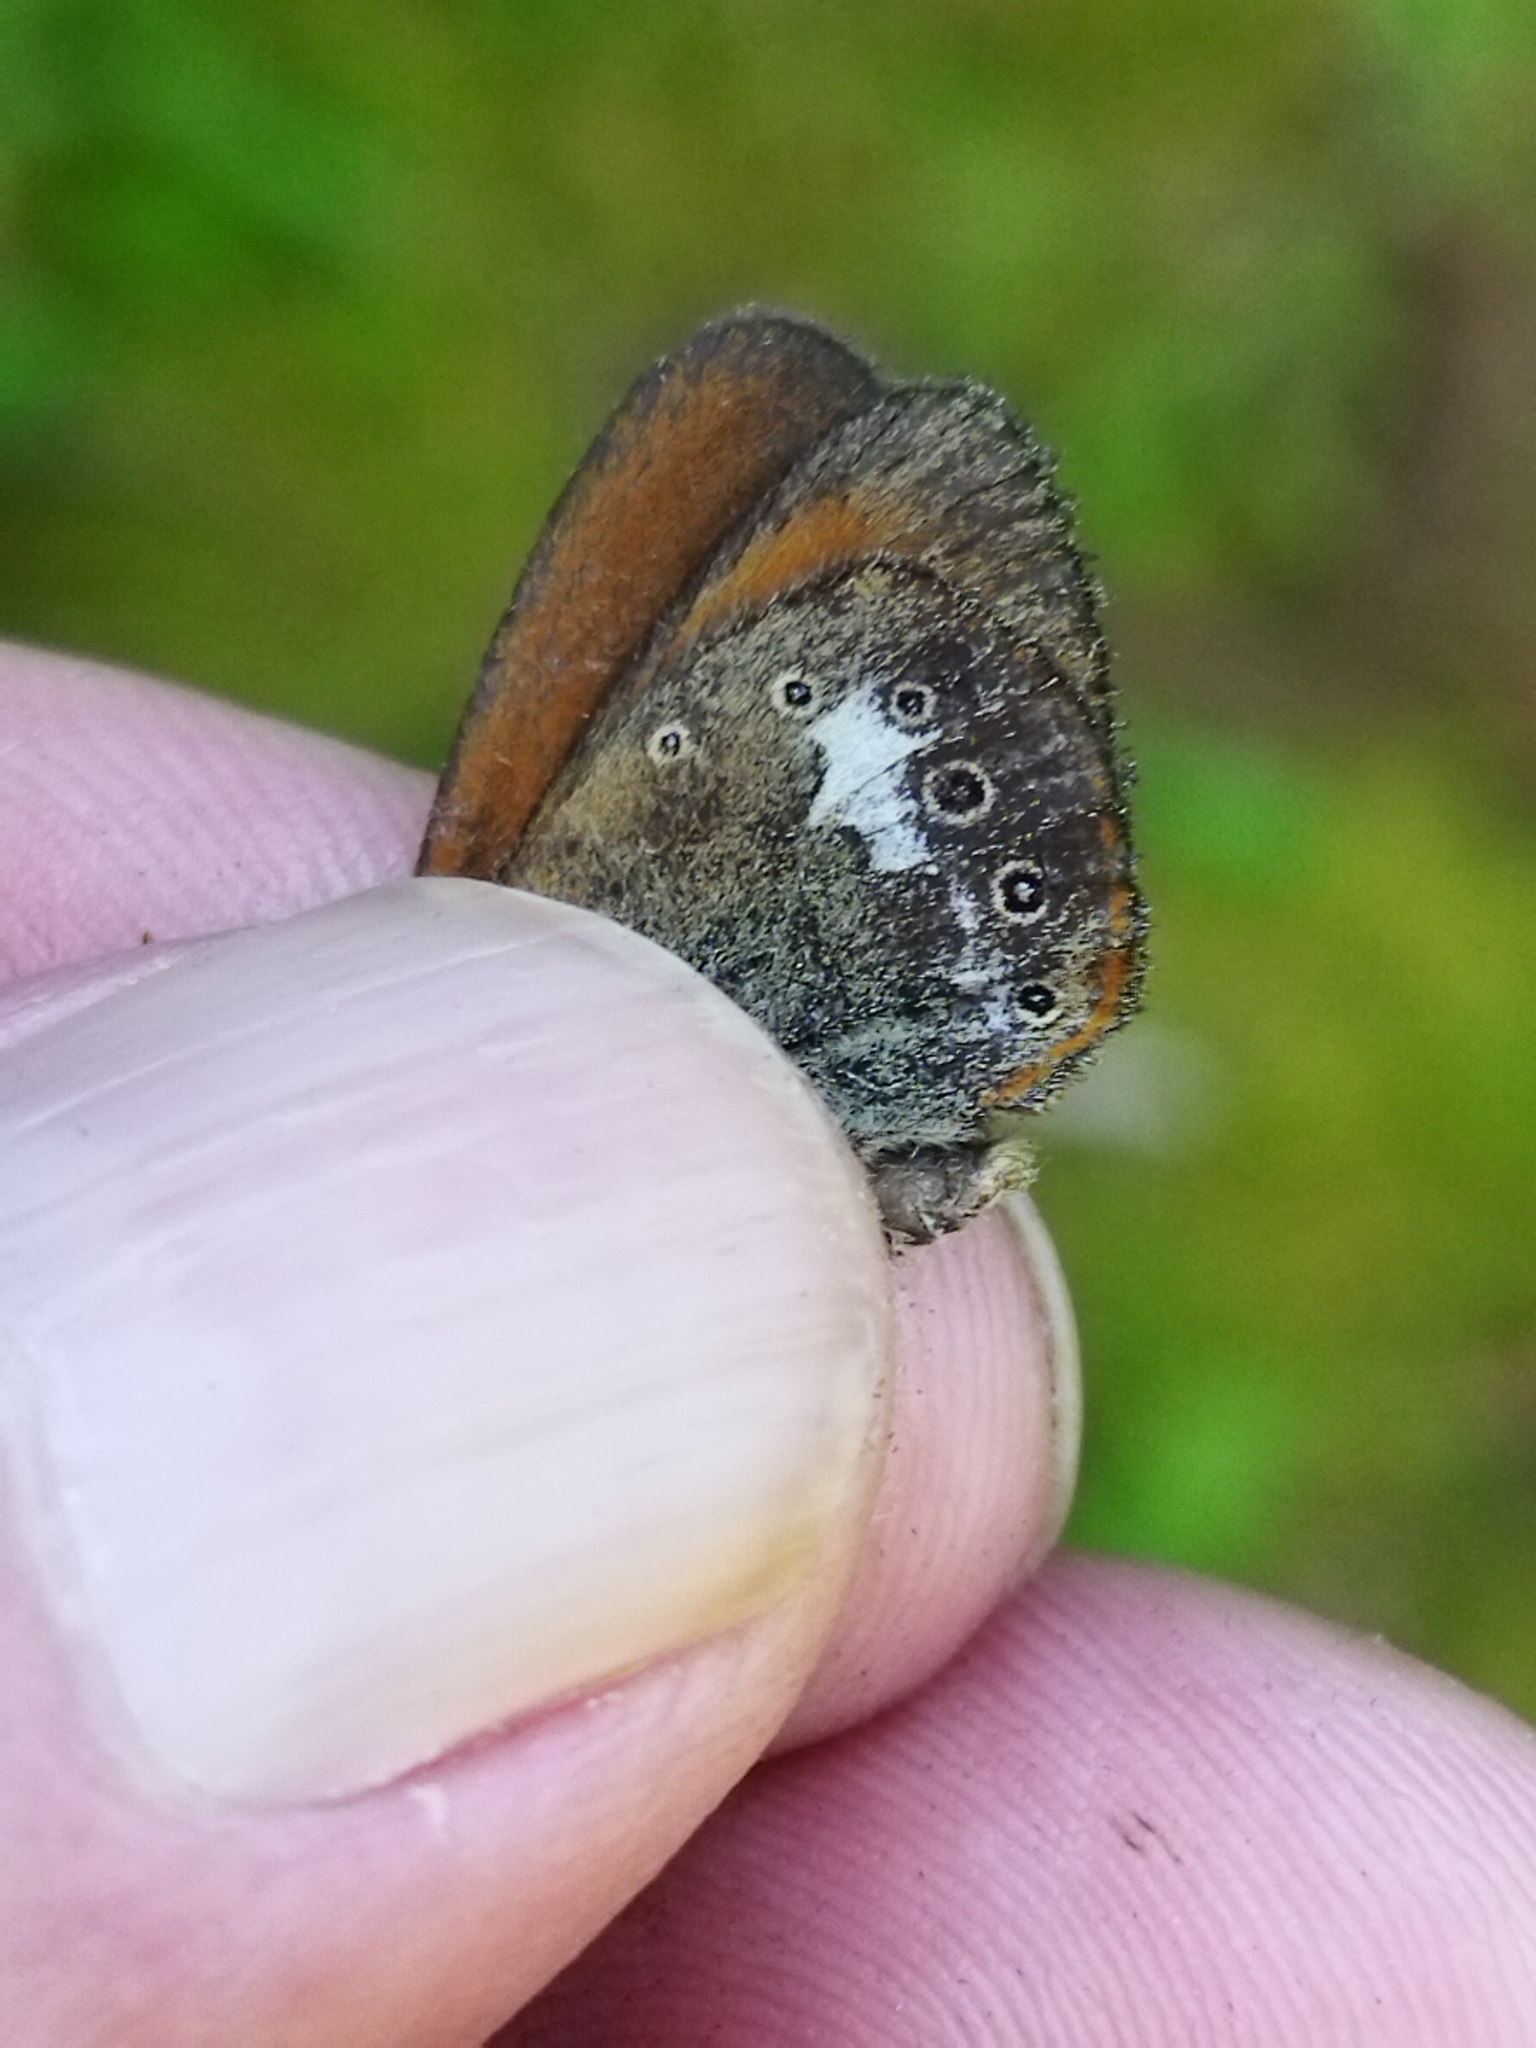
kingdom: Animalia
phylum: Arthropoda
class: Insecta
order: Lepidoptera
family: Nymphalidae
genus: Coenonympha
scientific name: Coenonympha iphis
